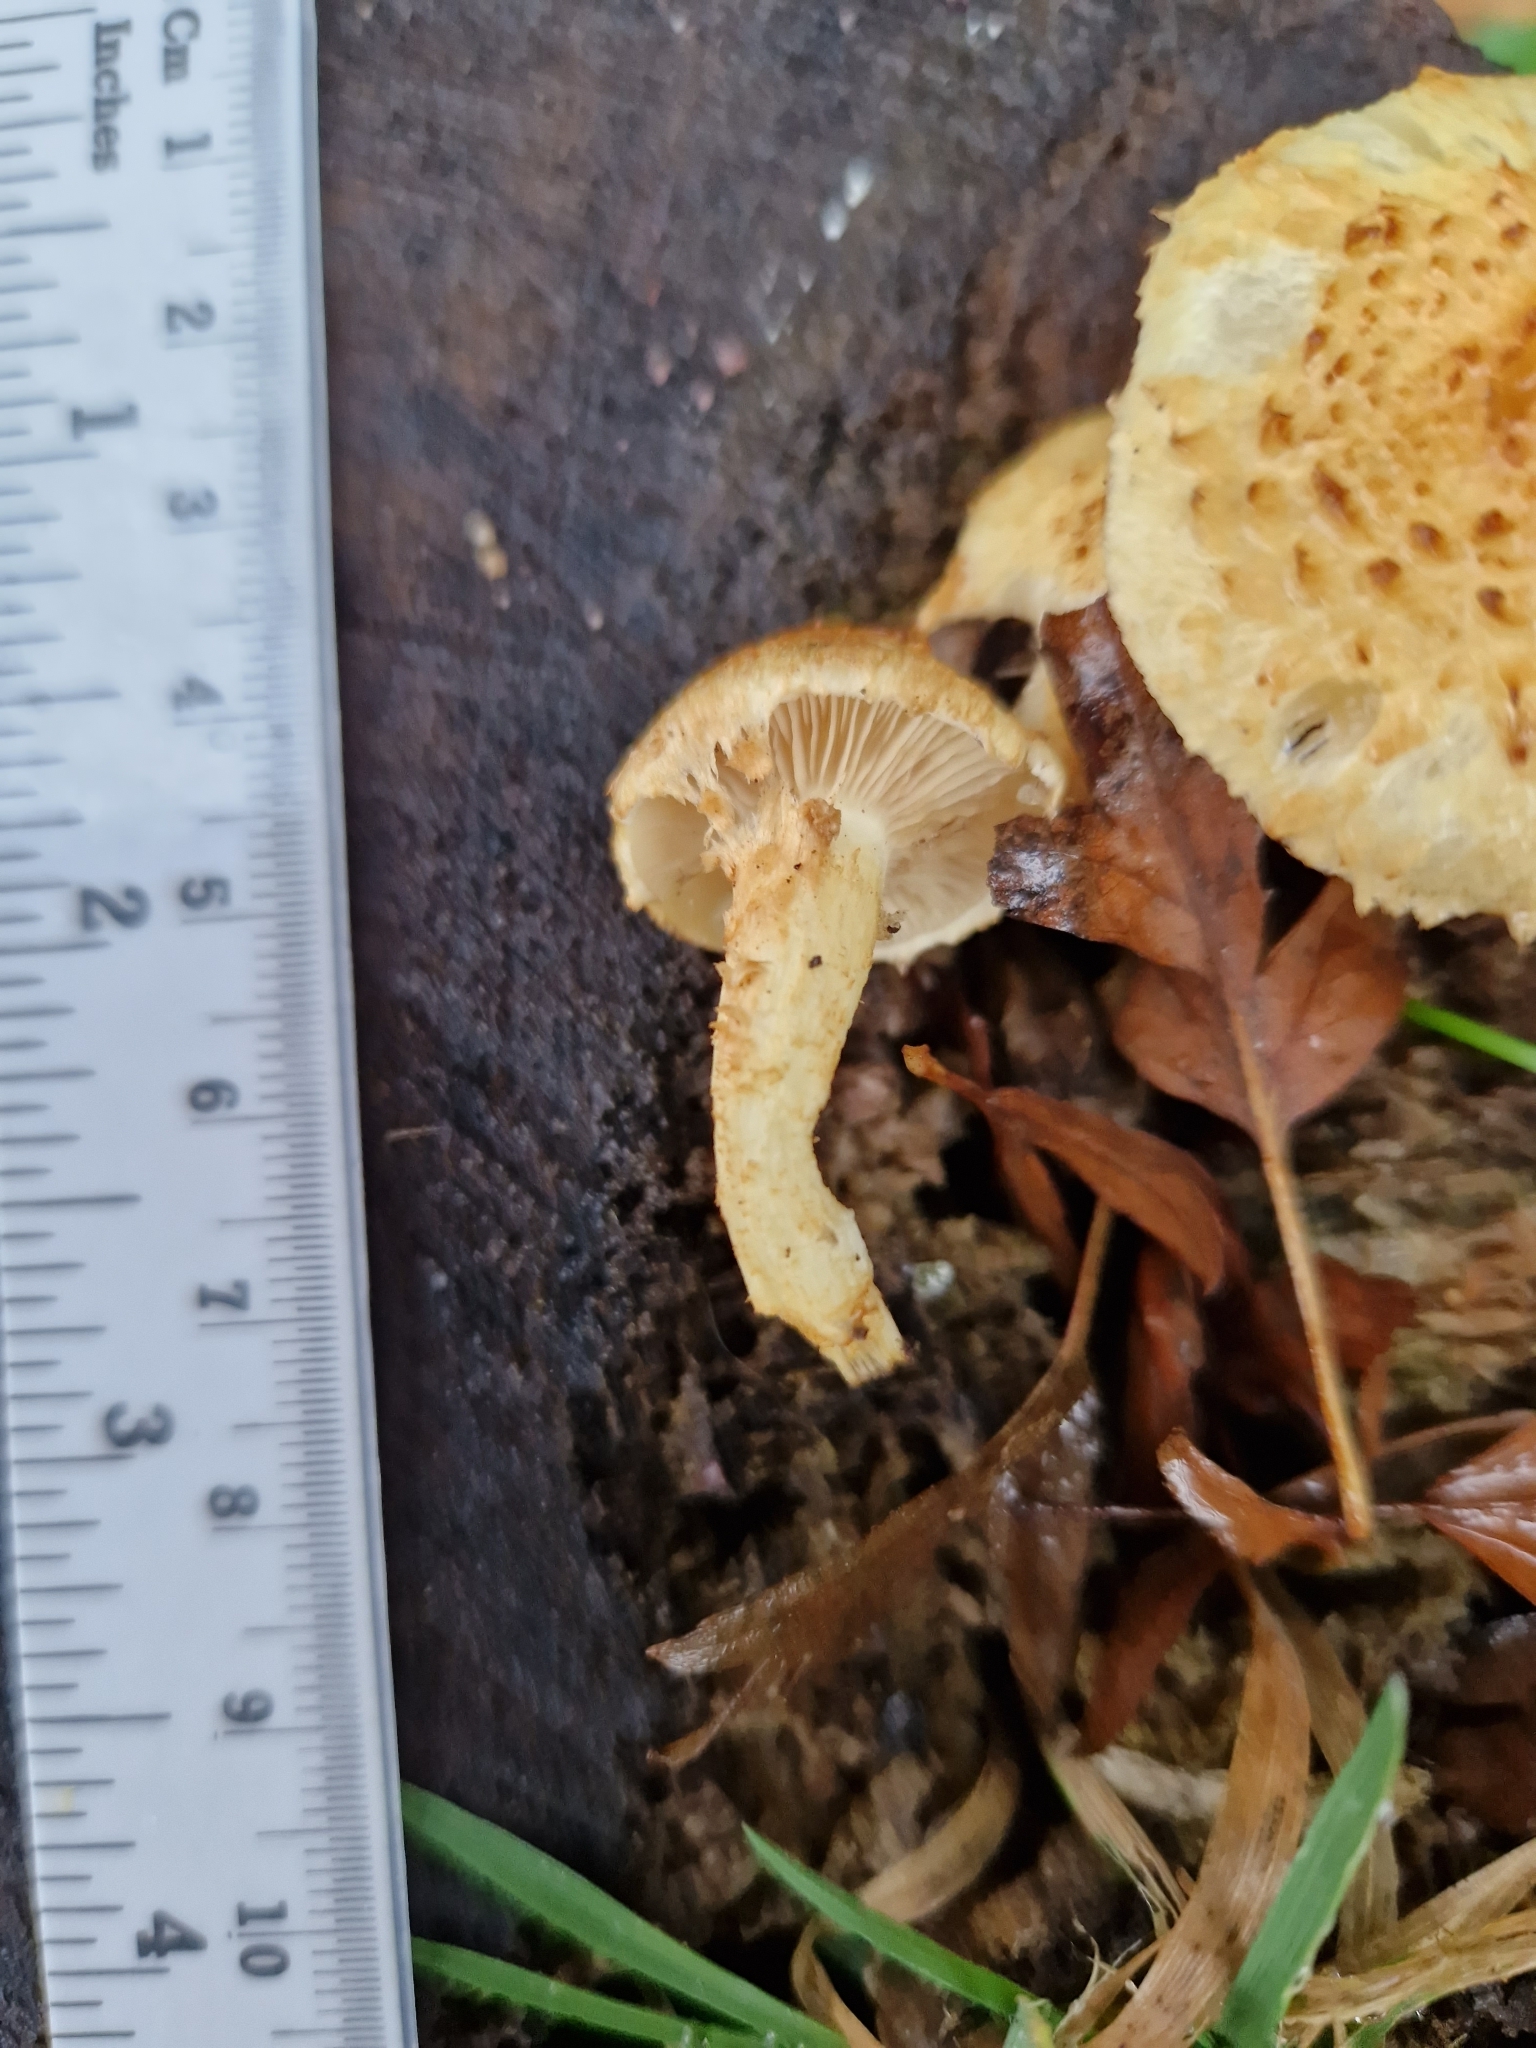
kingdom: Fungi
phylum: Basidiomycota
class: Agaricomycetes
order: Agaricales
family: Strophariaceae
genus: Pholiota
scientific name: Pholiota squarrosa
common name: Shaggy pholiota
